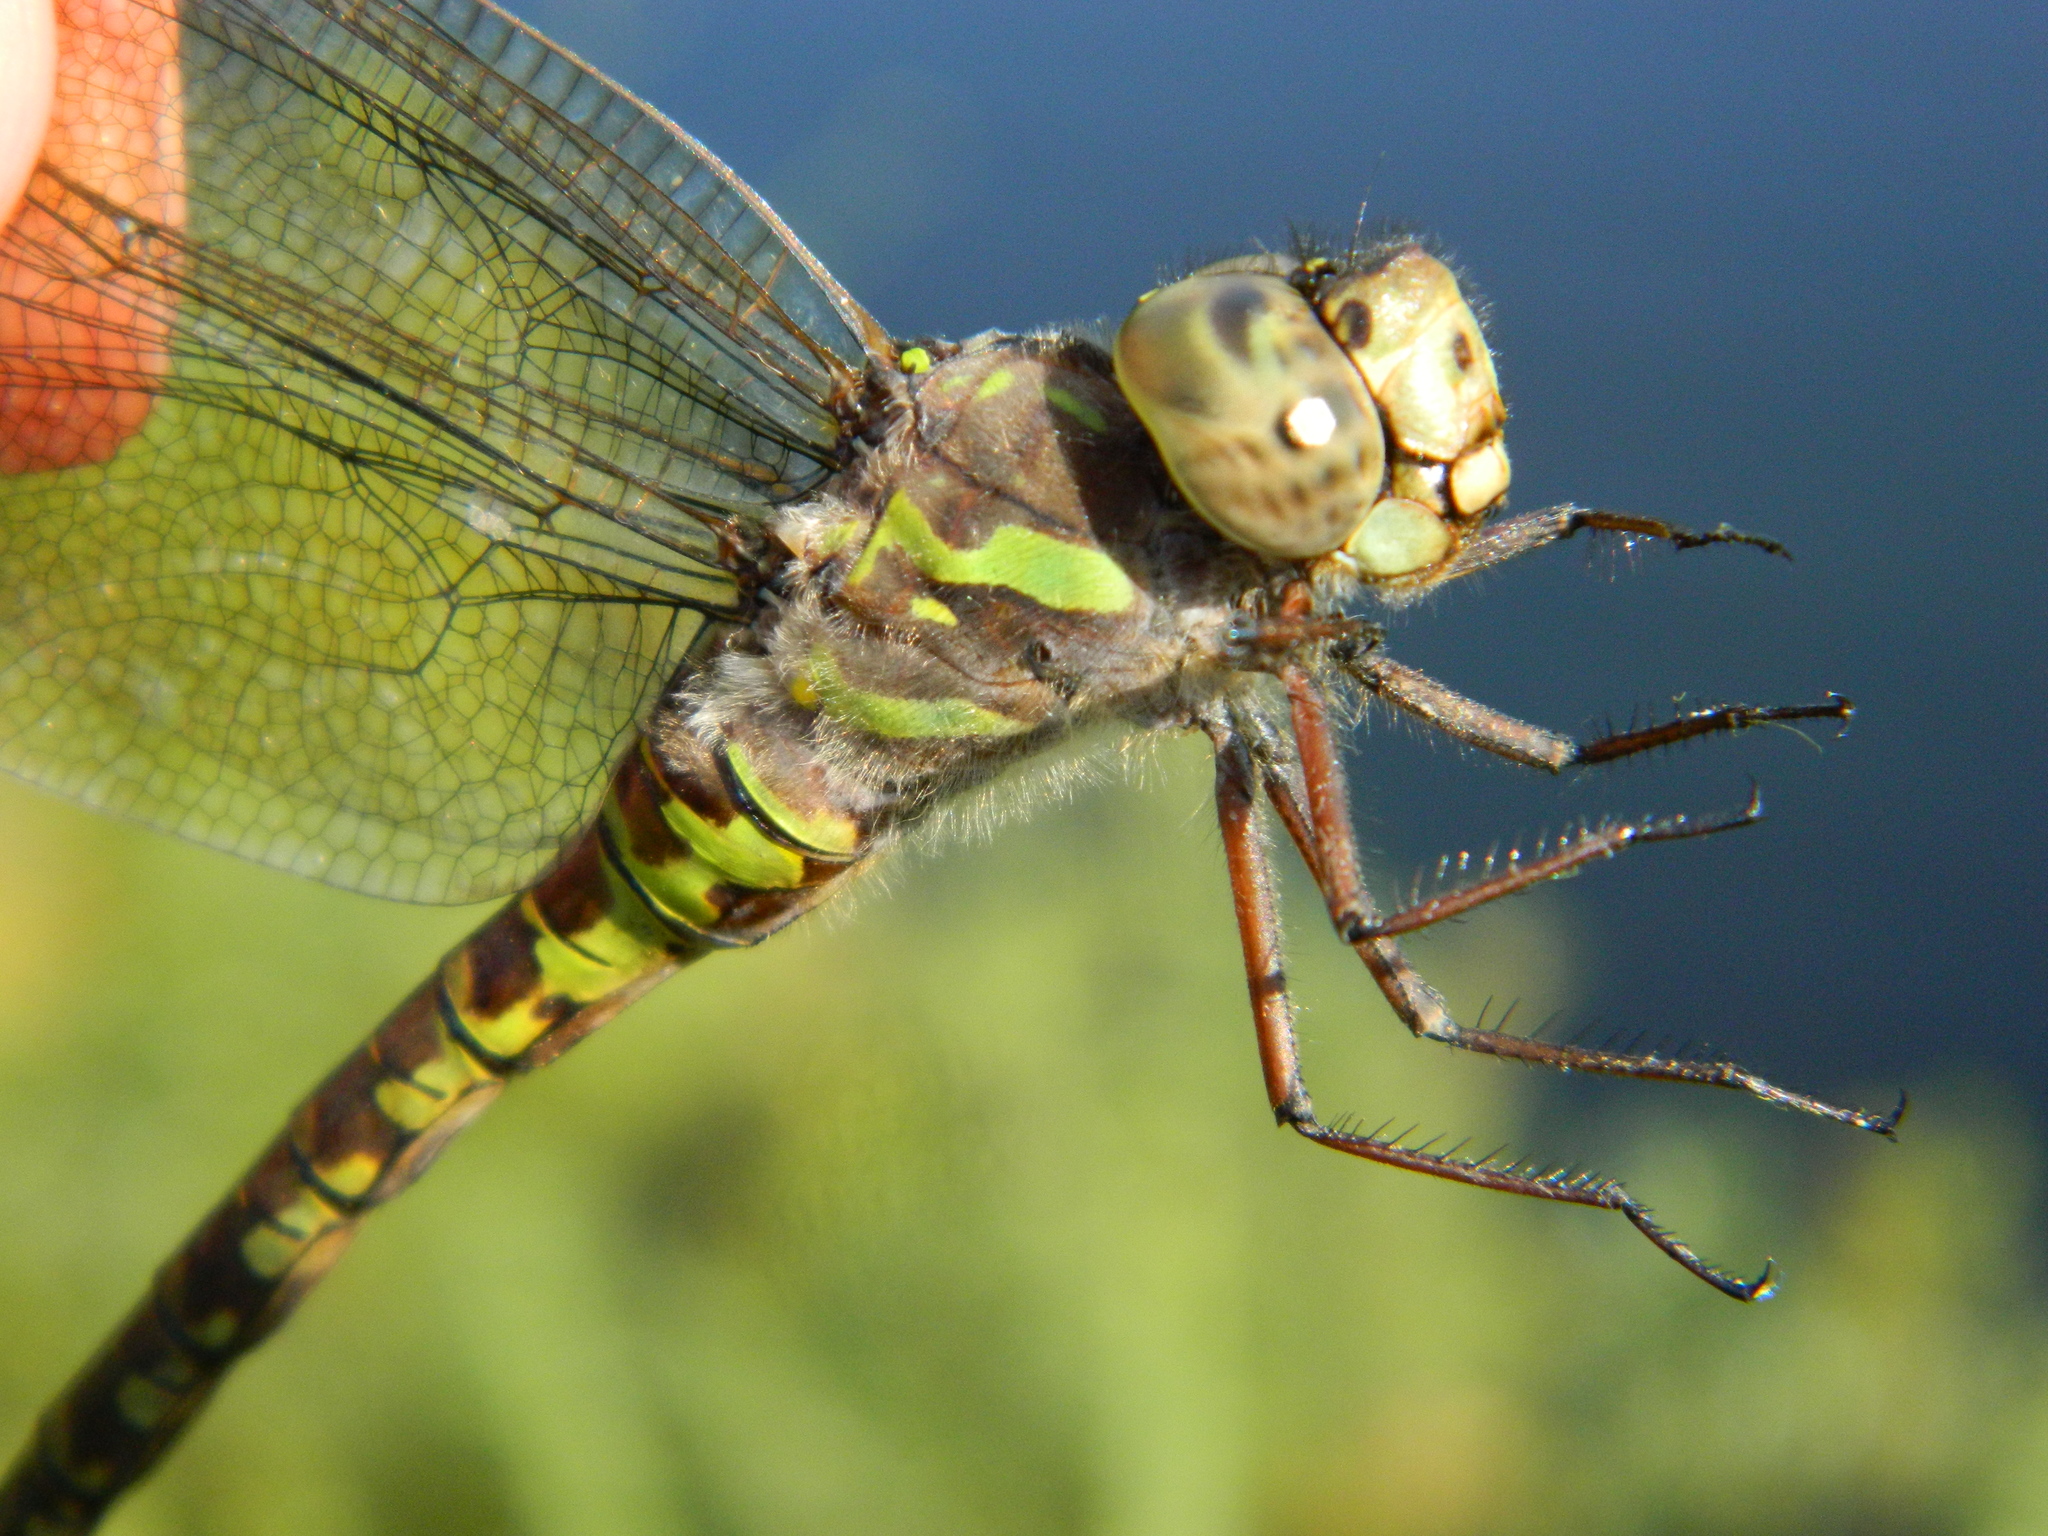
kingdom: Animalia
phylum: Arthropoda
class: Insecta
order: Odonata
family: Aeshnidae
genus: Aeshna
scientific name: Aeshna canadensis
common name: Canada darner
